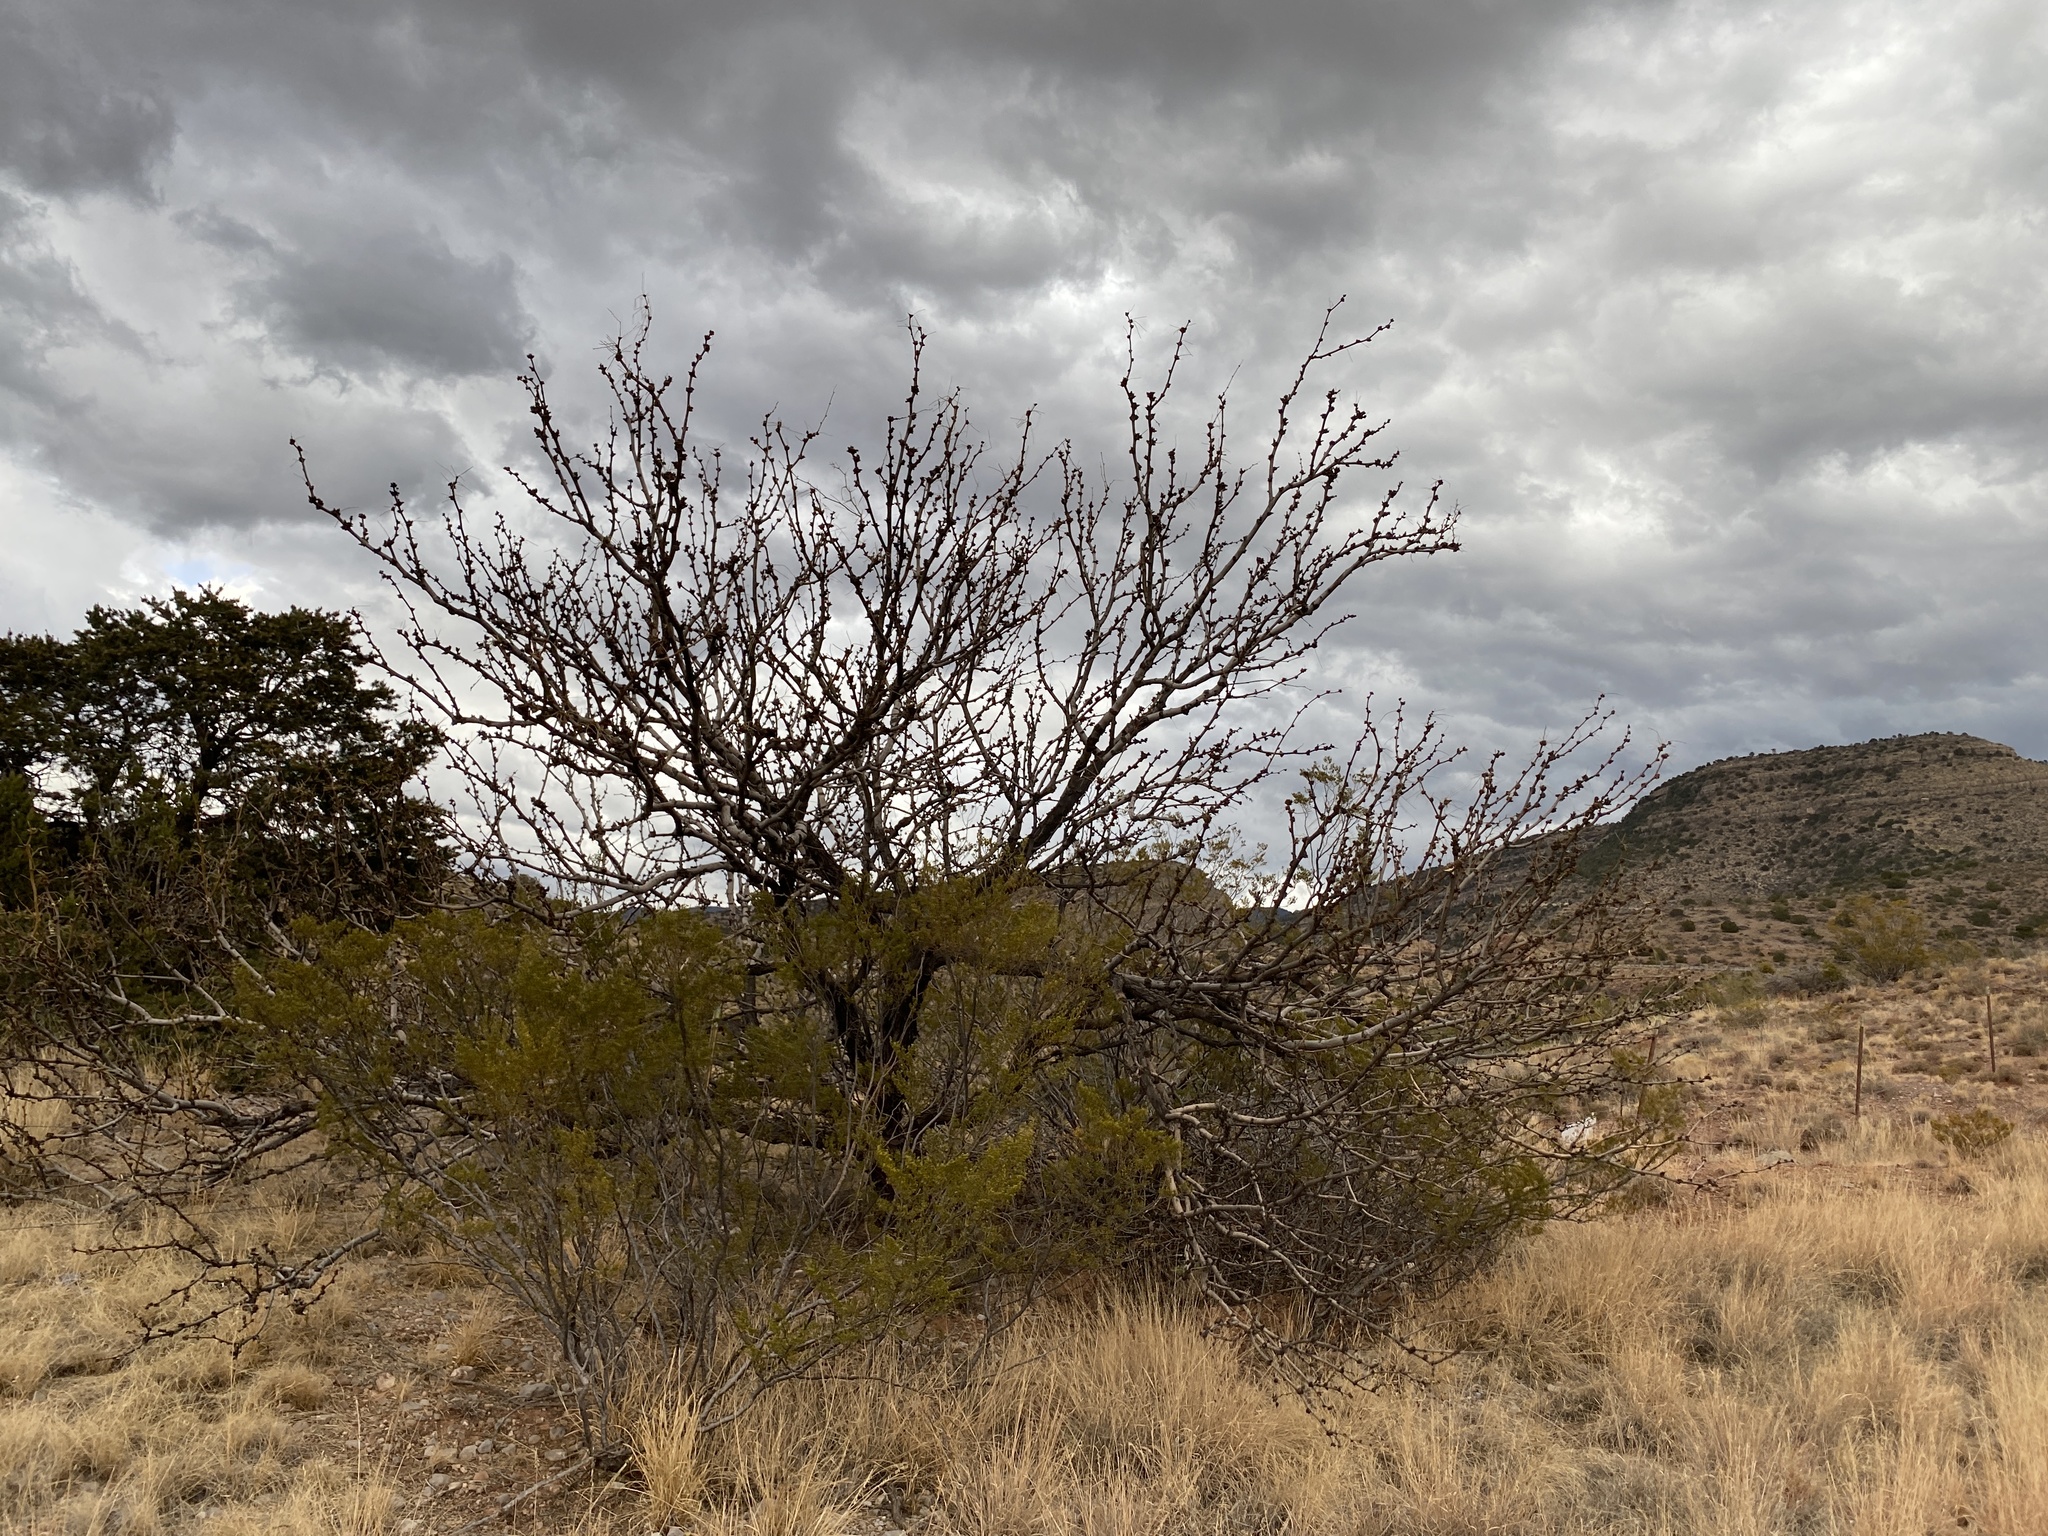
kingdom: Plantae
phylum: Tracheophyta
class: Magnoliopsida
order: Fabales
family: Fabaceae
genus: Prosopis
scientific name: Prosopis glandulosa
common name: Honey mesquite
